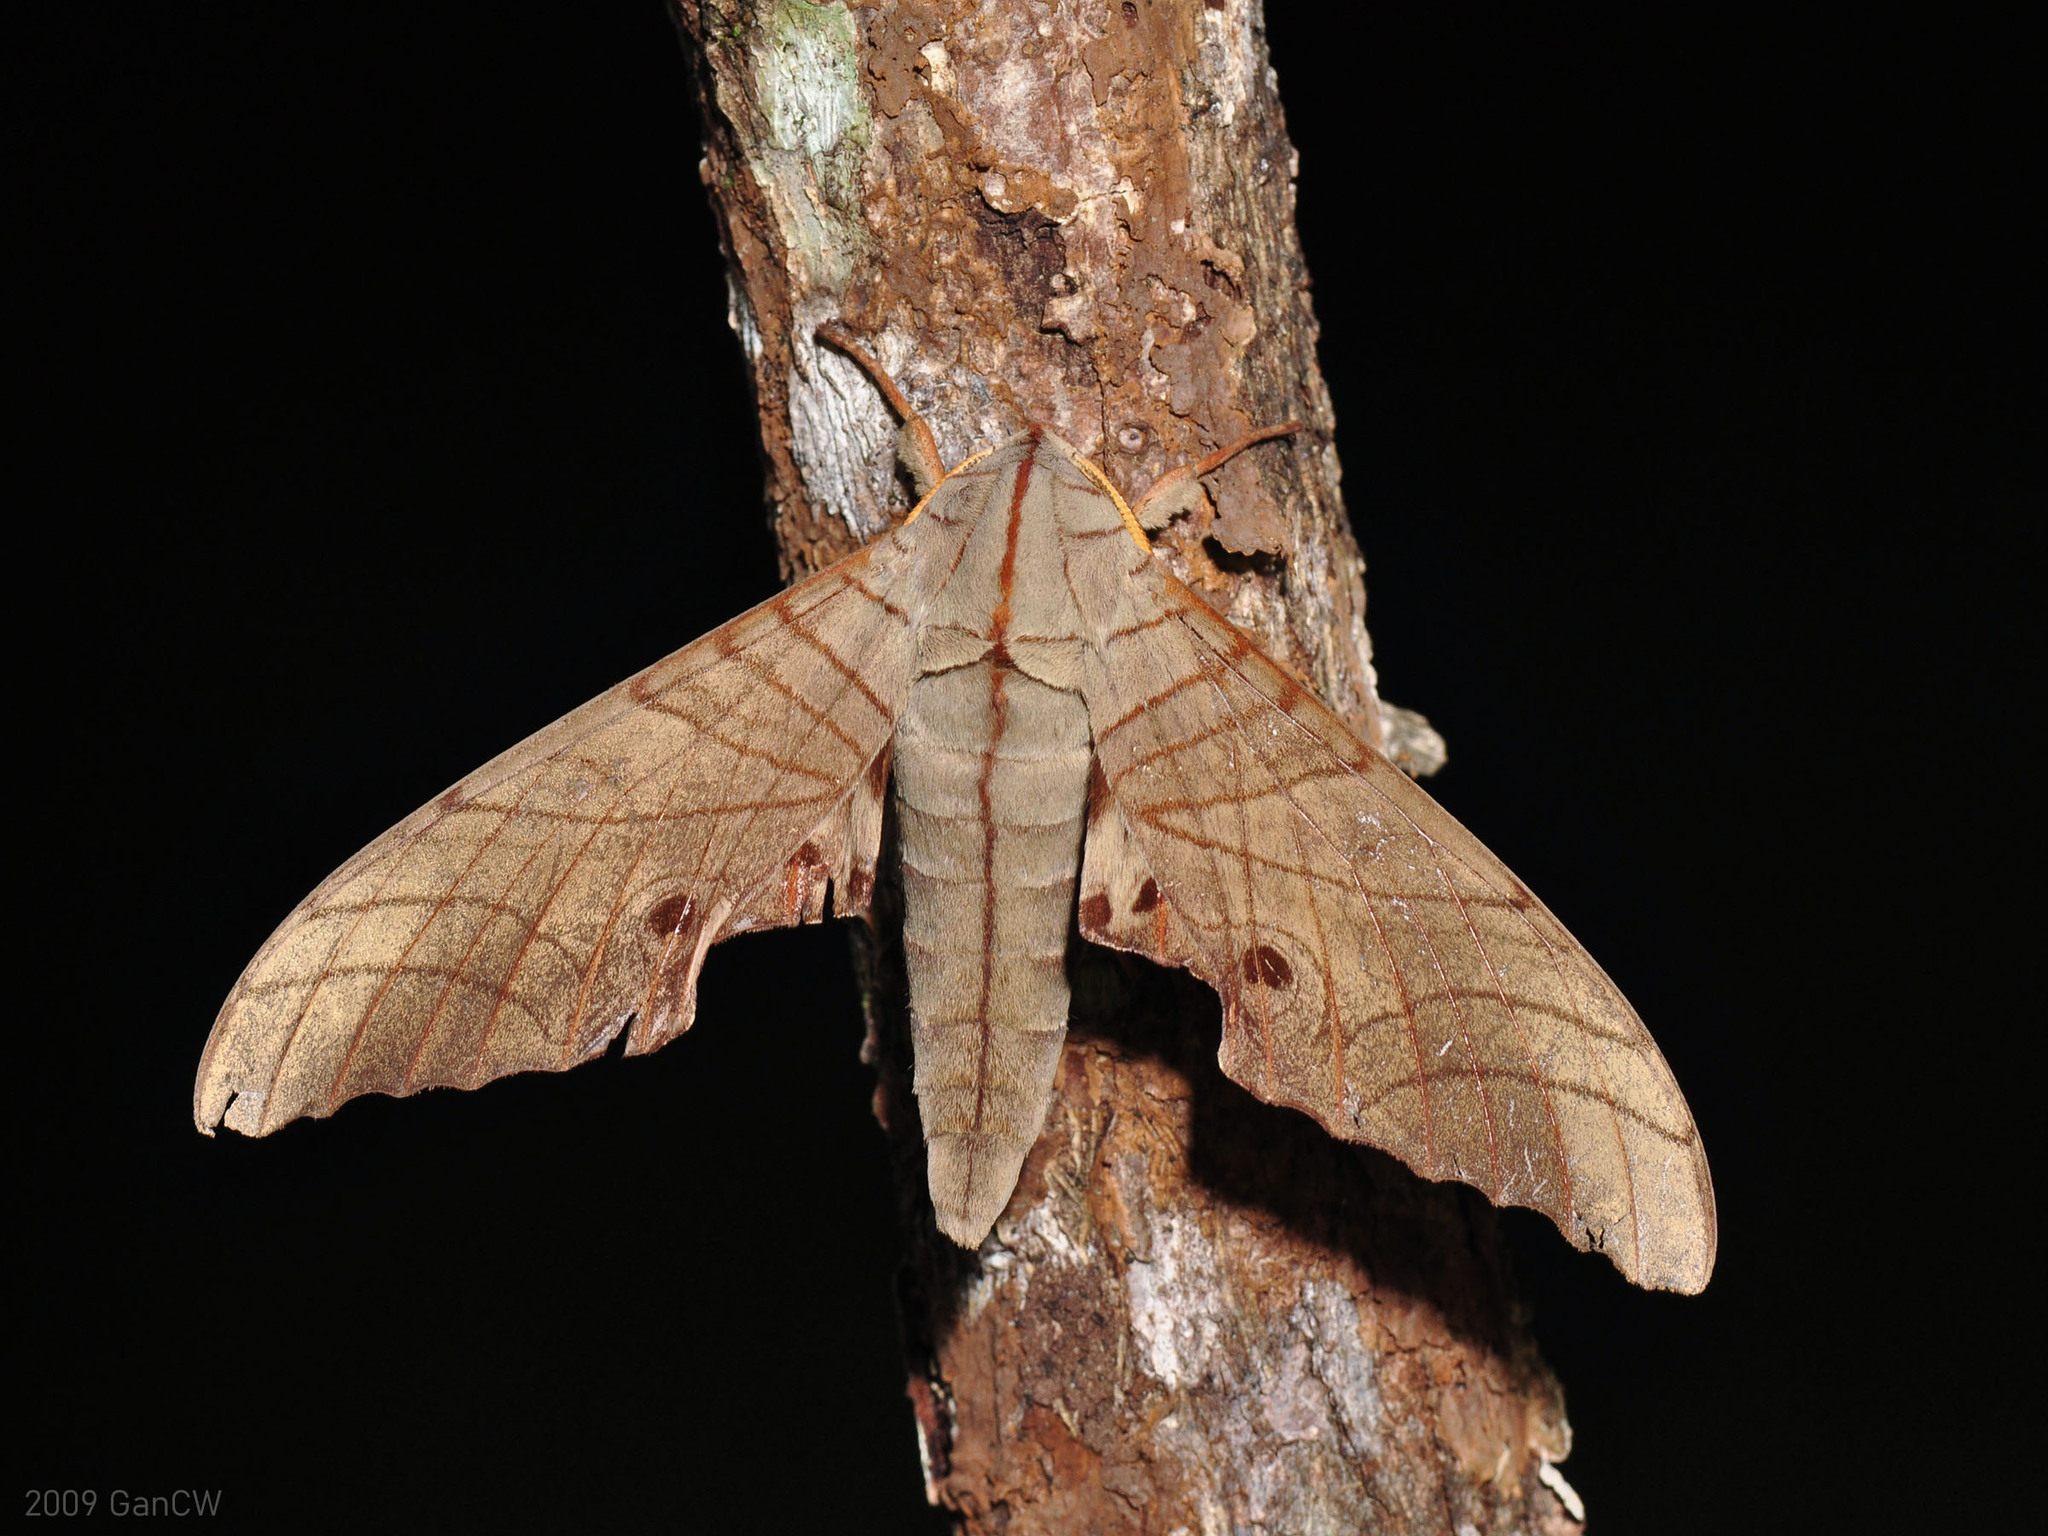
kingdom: Animalia
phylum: Arthropoda
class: Insecta
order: Lepidoptera
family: Sphingidae
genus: Marumba
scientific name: Marumba sperchius
